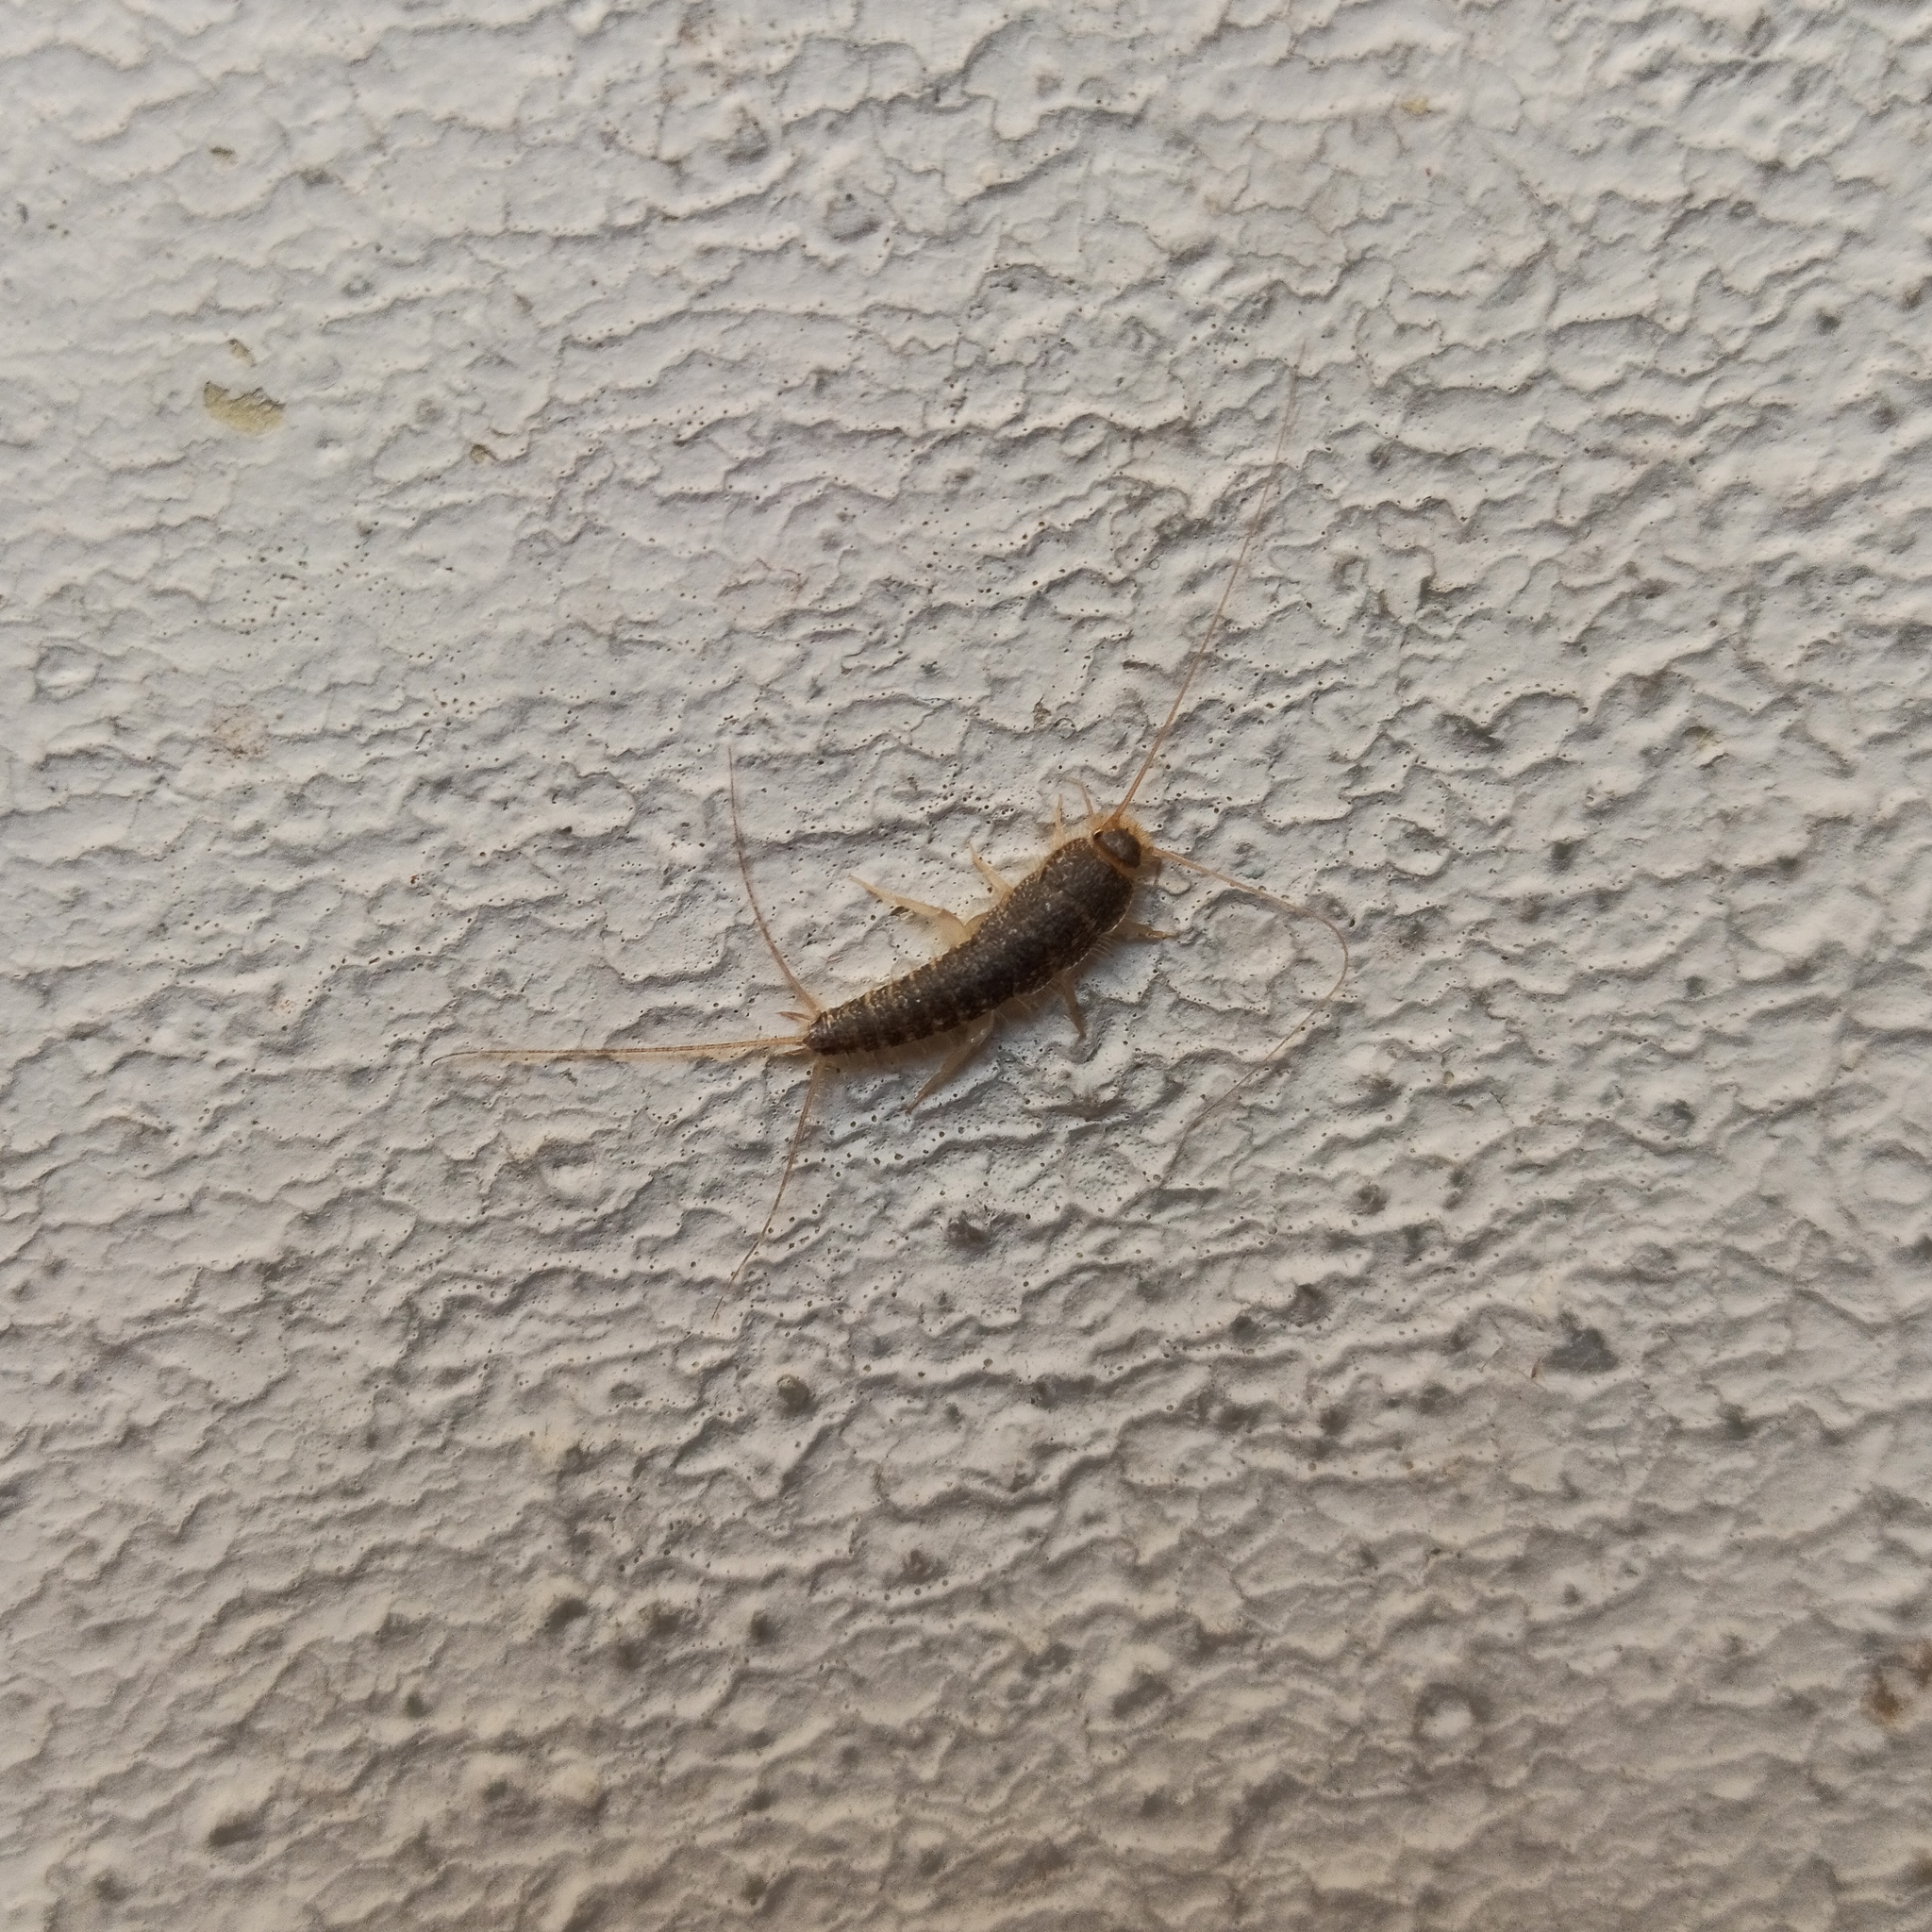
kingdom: Animalia
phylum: Arthropoda
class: Insecta
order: Zygentoma
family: Lepismatidae
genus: Ctenolepisma
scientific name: Ctenolepisma longicaudatum
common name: Silverfish
